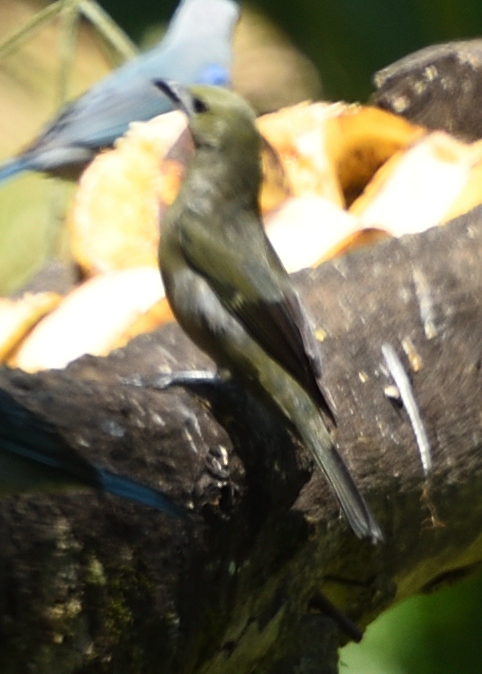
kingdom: Animalia
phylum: Chordata
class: Aves
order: Passeriformes
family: Thraupidae
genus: Thraupis
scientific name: Thraupis palmarum
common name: Palm tanager
